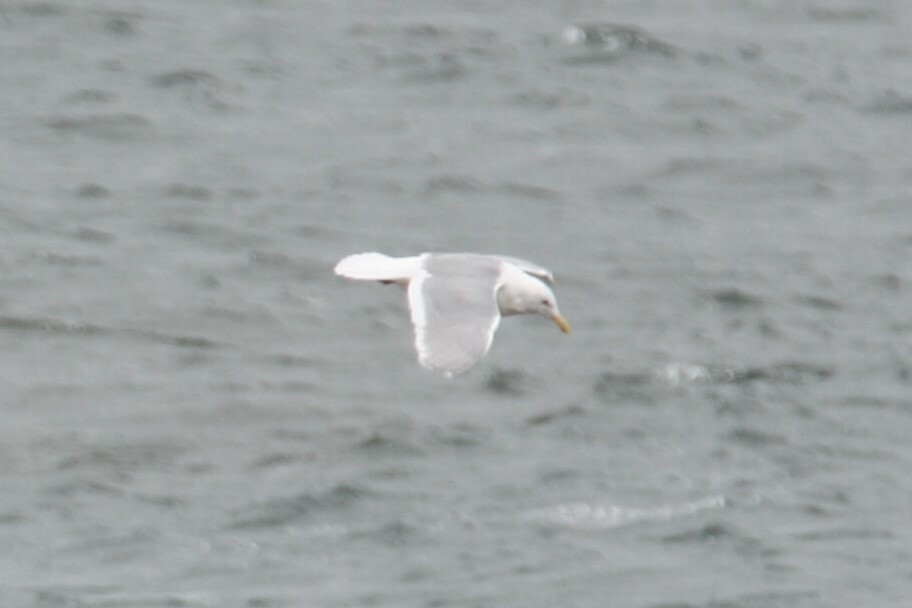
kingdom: Animalia
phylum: Chordata
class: Aves
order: Charadriiformes
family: Laridae
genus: Larus
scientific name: Larus glaucescens
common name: Glaucous-winged gull
